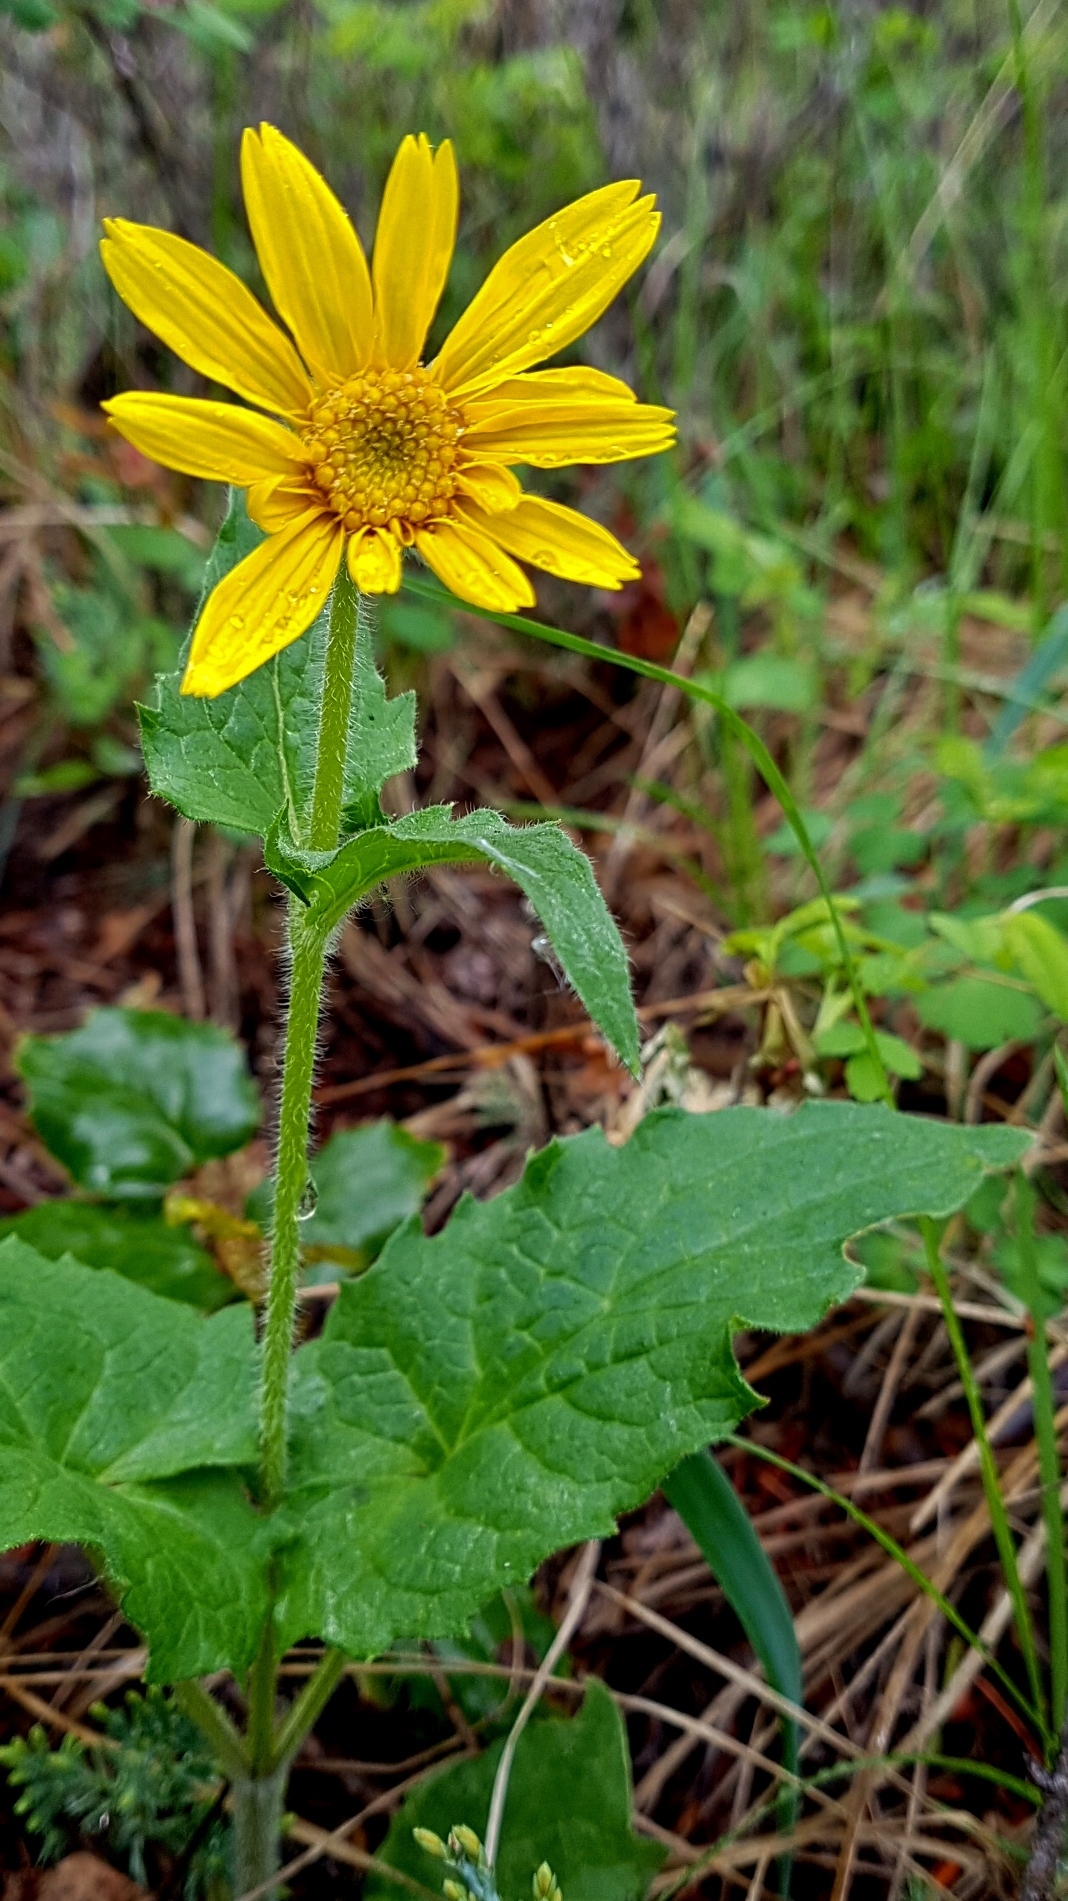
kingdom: Plantae
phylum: Tracheophyta
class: Magnoliopsida
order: Asterales
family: Asteraceae
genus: Arnica
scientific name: Arnica cordifolia
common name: Heart-leaf arnica
